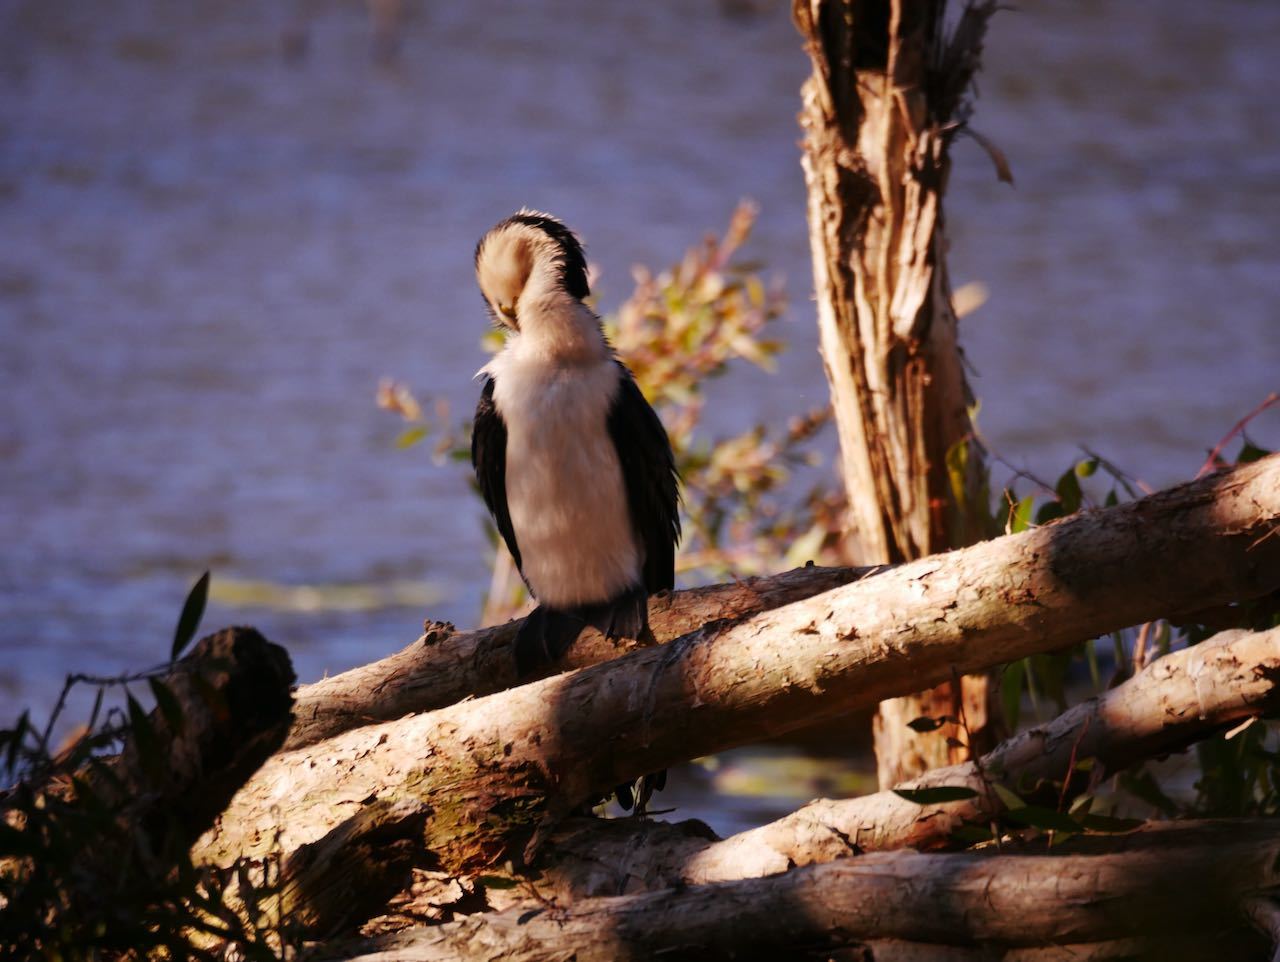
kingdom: Animalia
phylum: Chordata
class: Aves
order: Suliformes
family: Phalacrocoracidae
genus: Microcarbo
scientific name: Microcarbo melanoleucos
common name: Little pied cormorant
